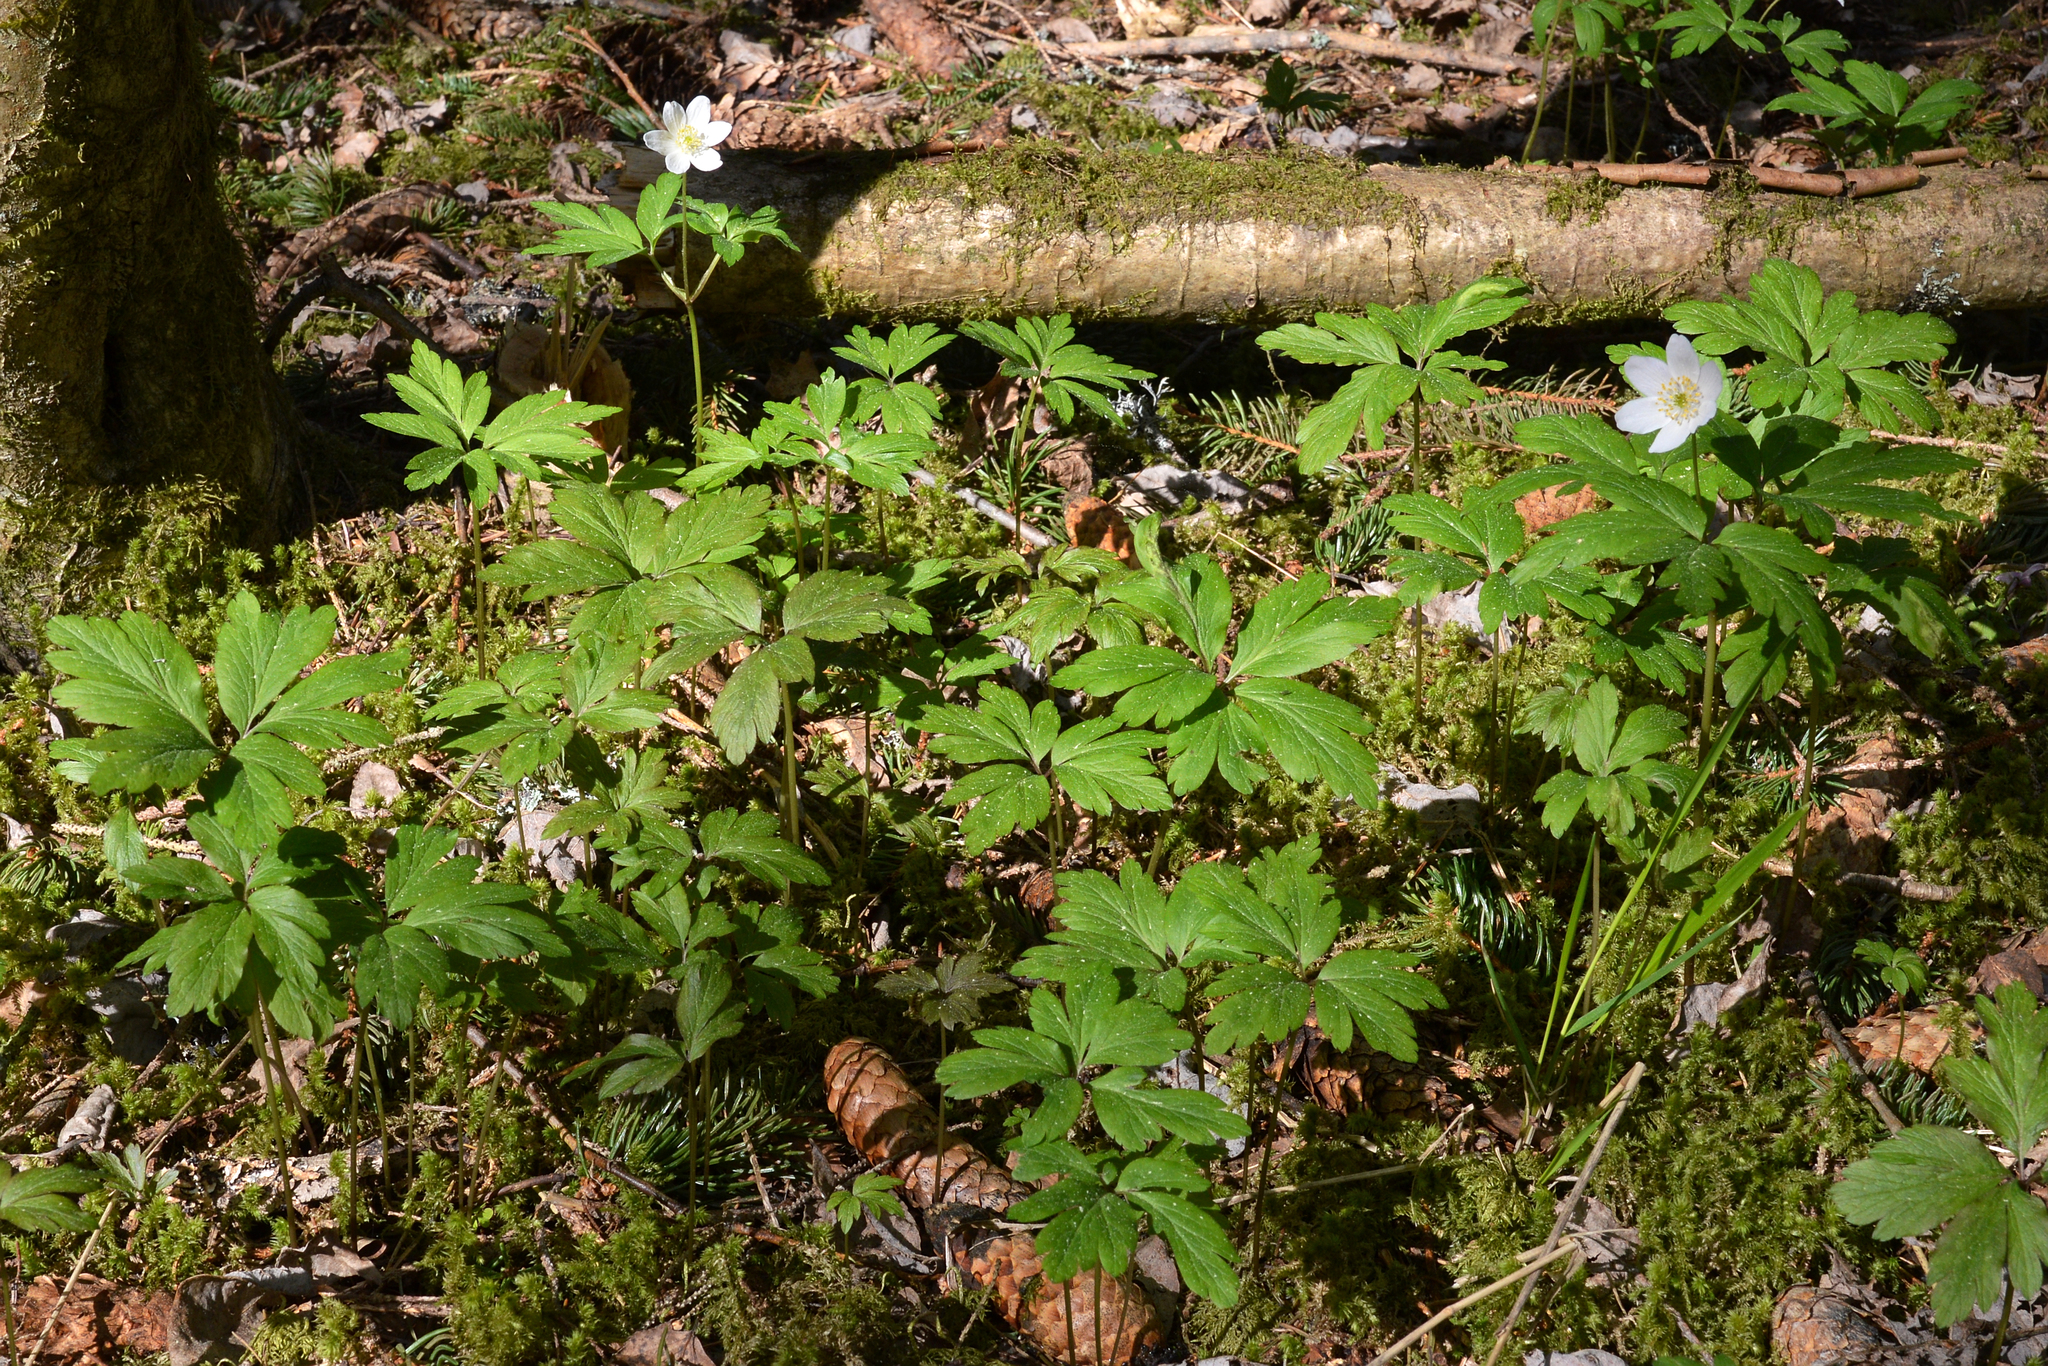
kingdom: Plantae
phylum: Tracheophyta
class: Magnoliopsida
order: Ranunculales
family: Ranunculaceae
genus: Anemone
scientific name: Anemone nemorosa
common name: Wood anemone
